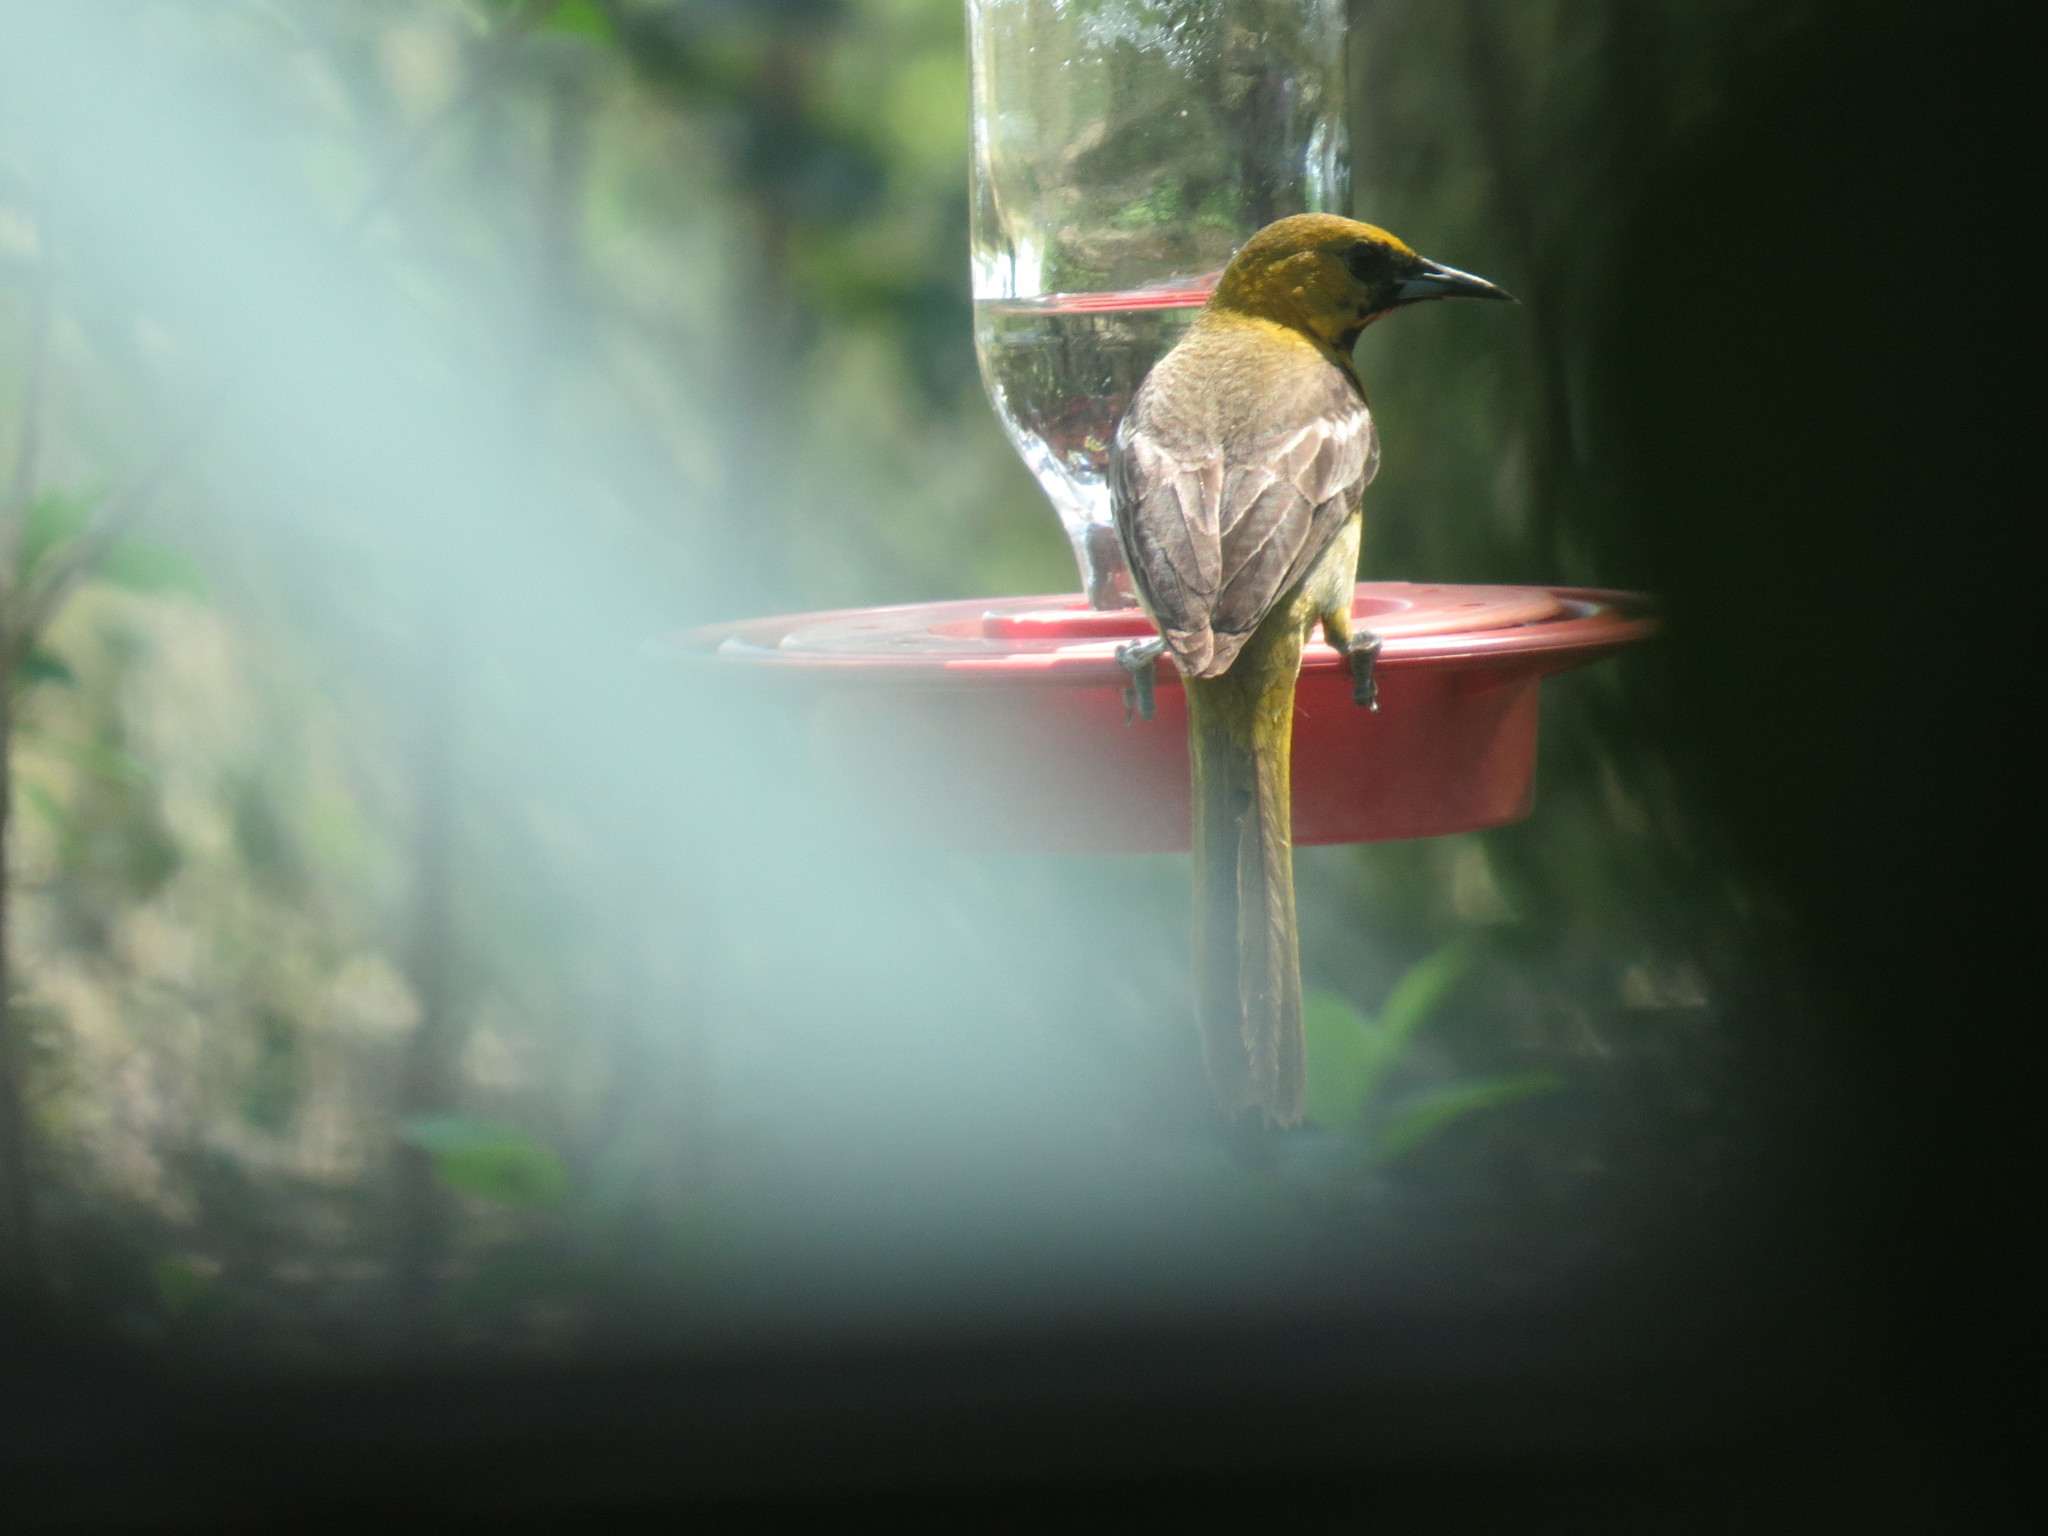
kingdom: Animalia
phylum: Chordata
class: Aves
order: Passeriformes
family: Icteridae
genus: Icterus
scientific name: Icterus cucullatus
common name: Hooded oriole
